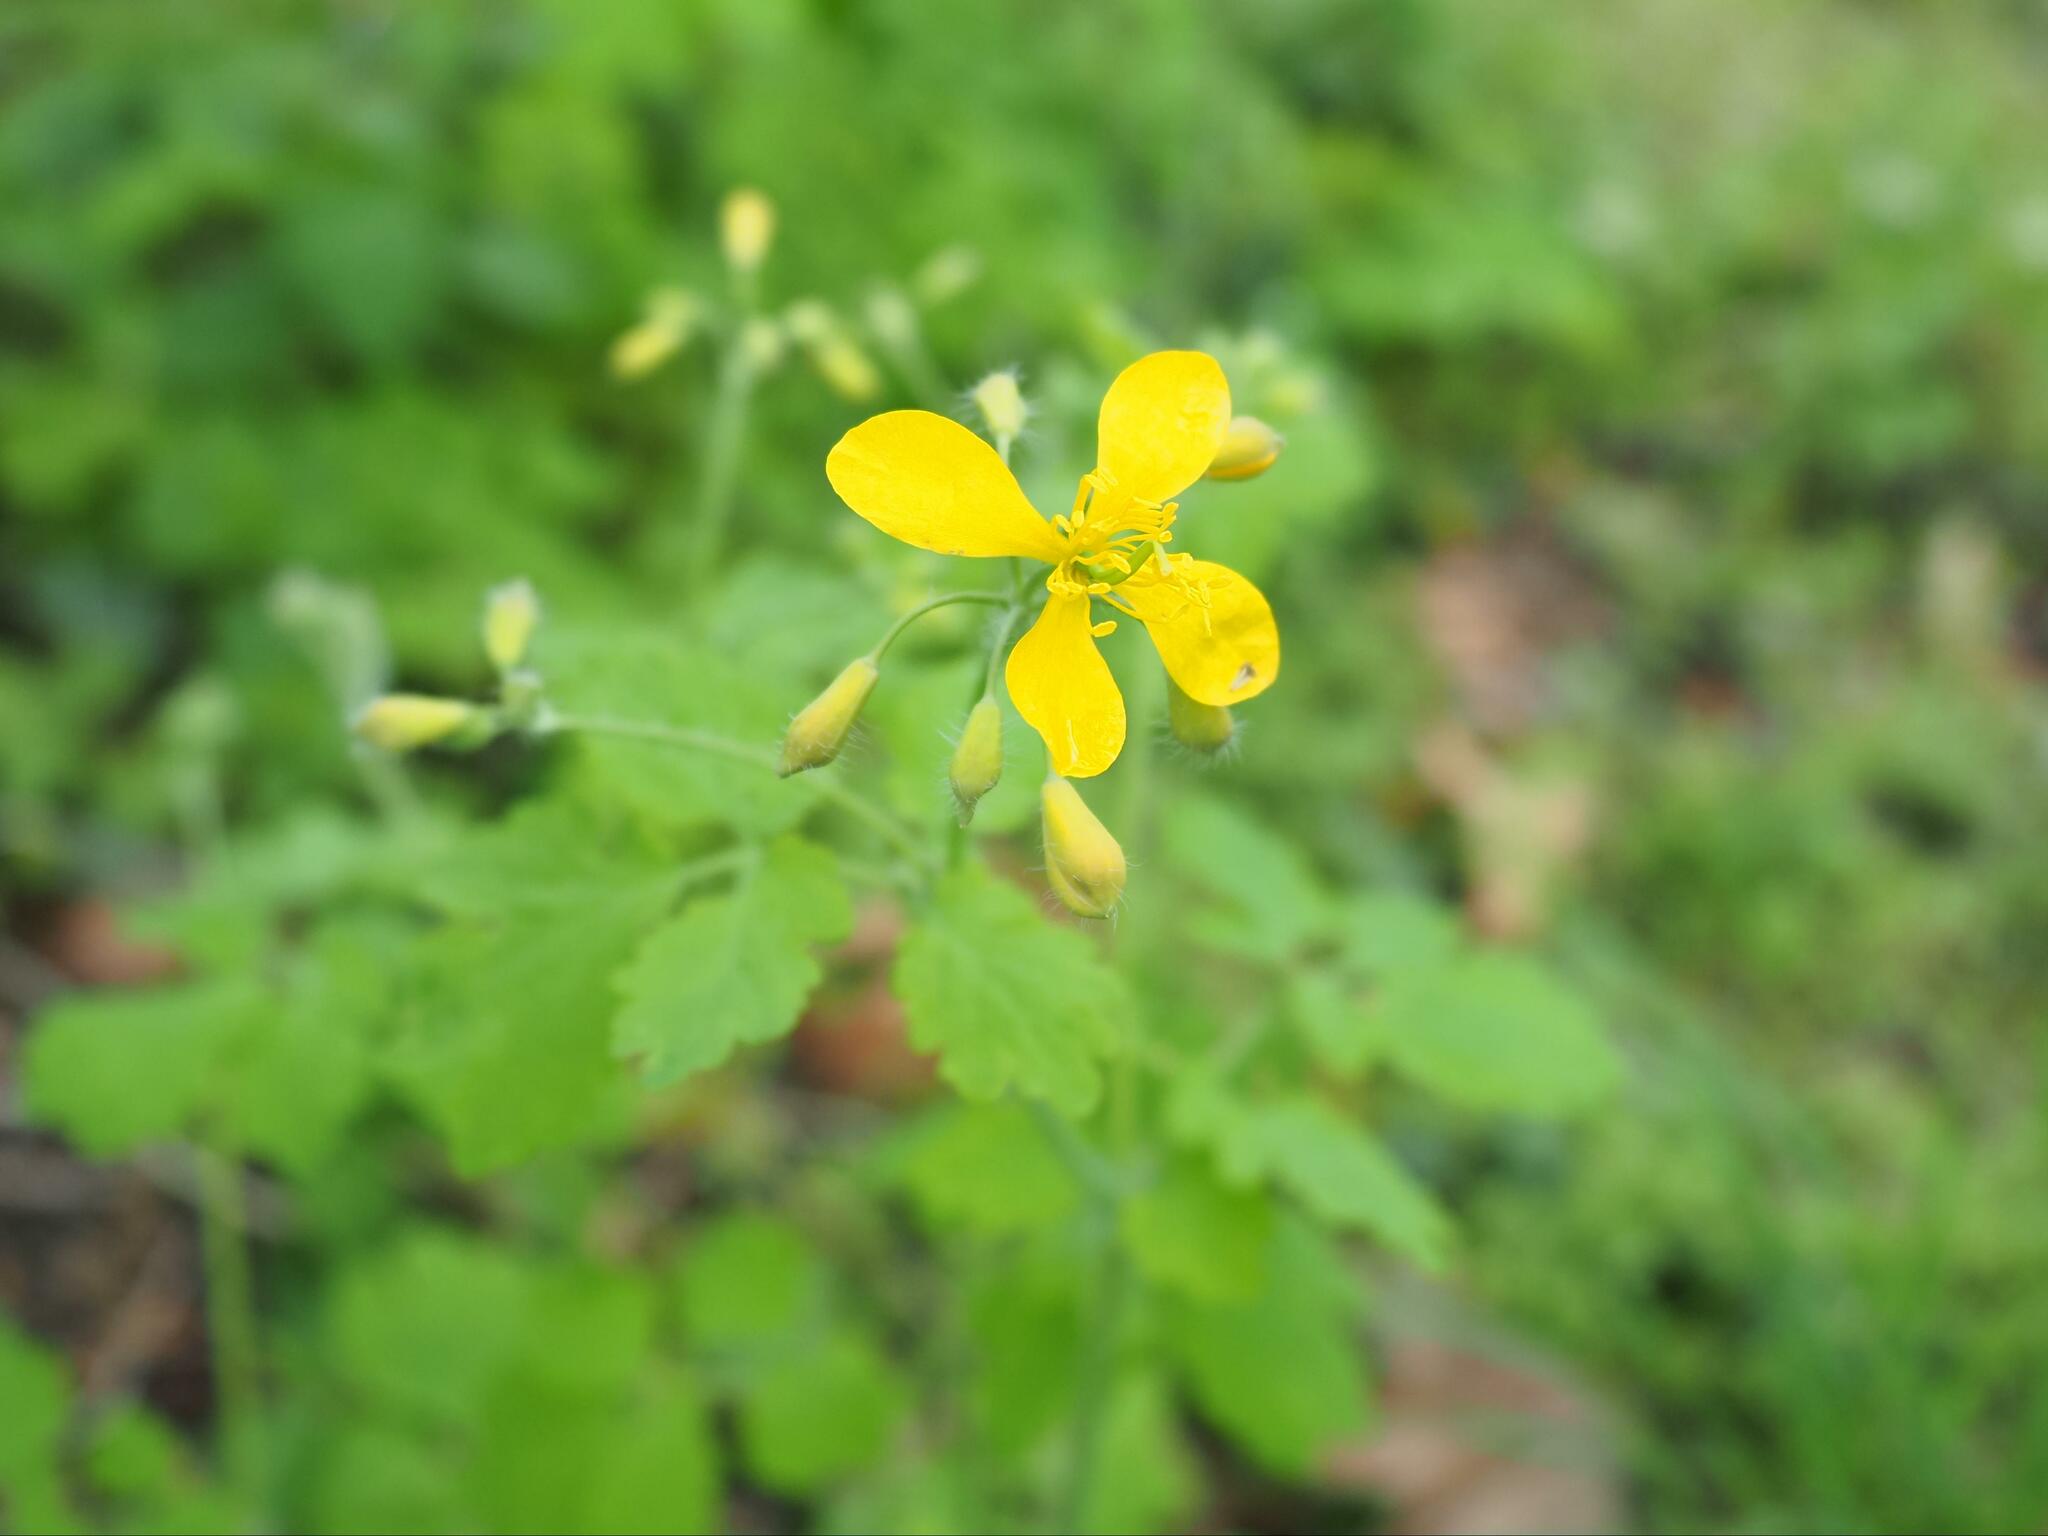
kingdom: Plantae
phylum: Tracheophyta
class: Magnoliopsida
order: Ranunculales
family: Papaveraceae
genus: Chelidonium
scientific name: Chelidonium majus
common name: Greater celandine
